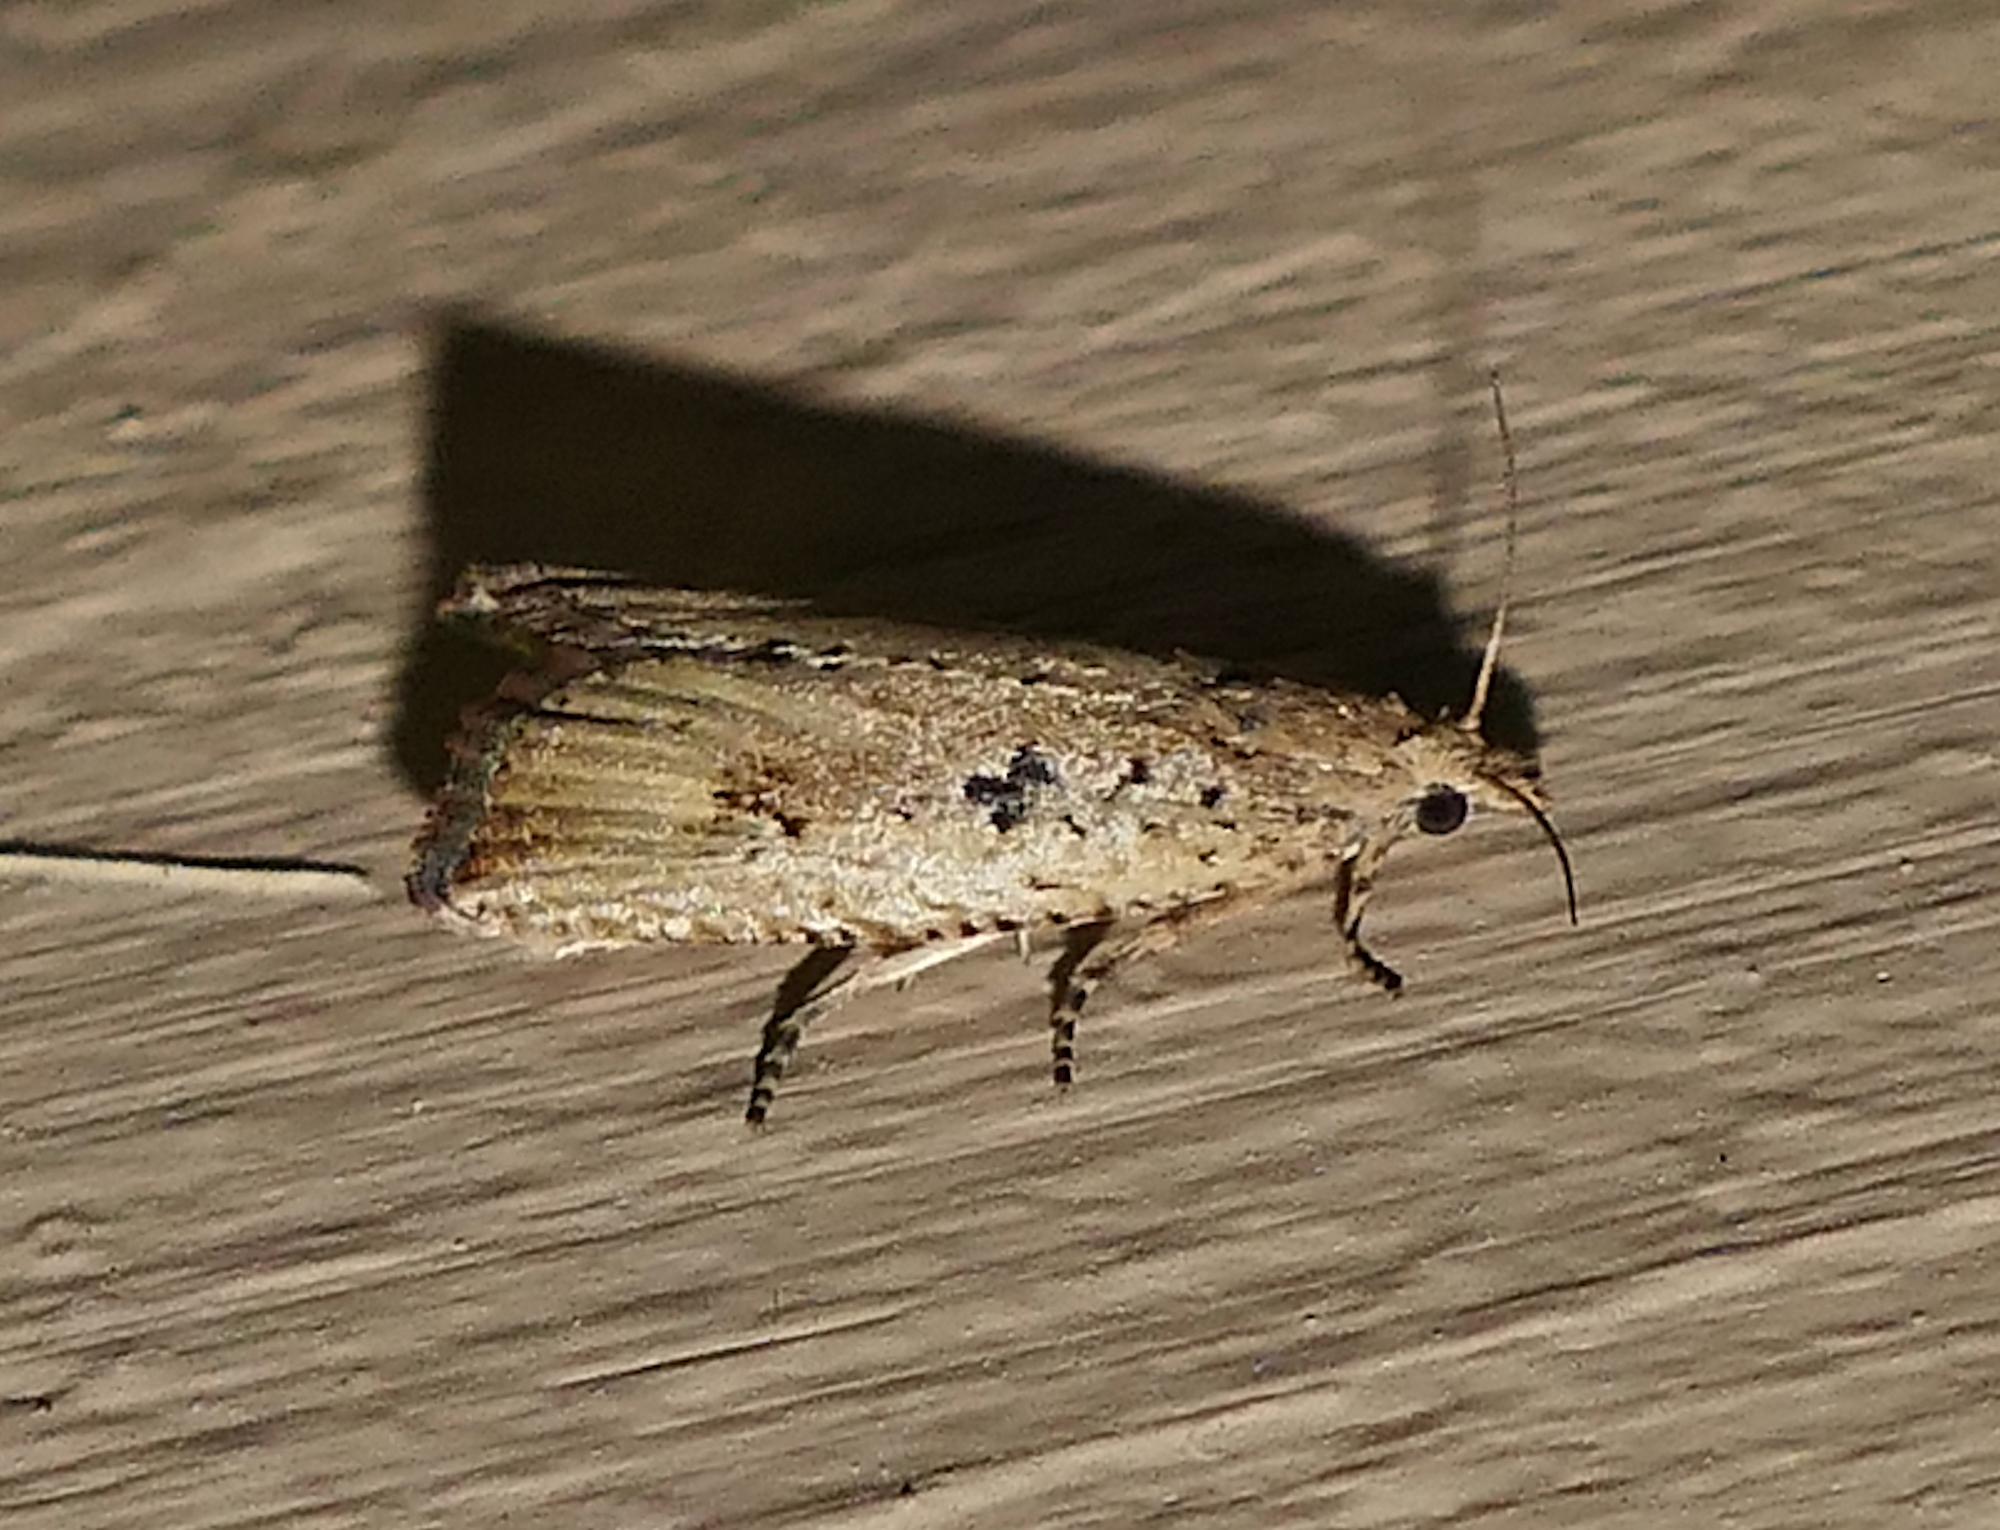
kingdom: Animalia
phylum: Arthropoda
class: Insecta
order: Lepidoptera
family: Tortricidae
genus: Bactra
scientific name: Bactra verutana
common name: Javelin moth
